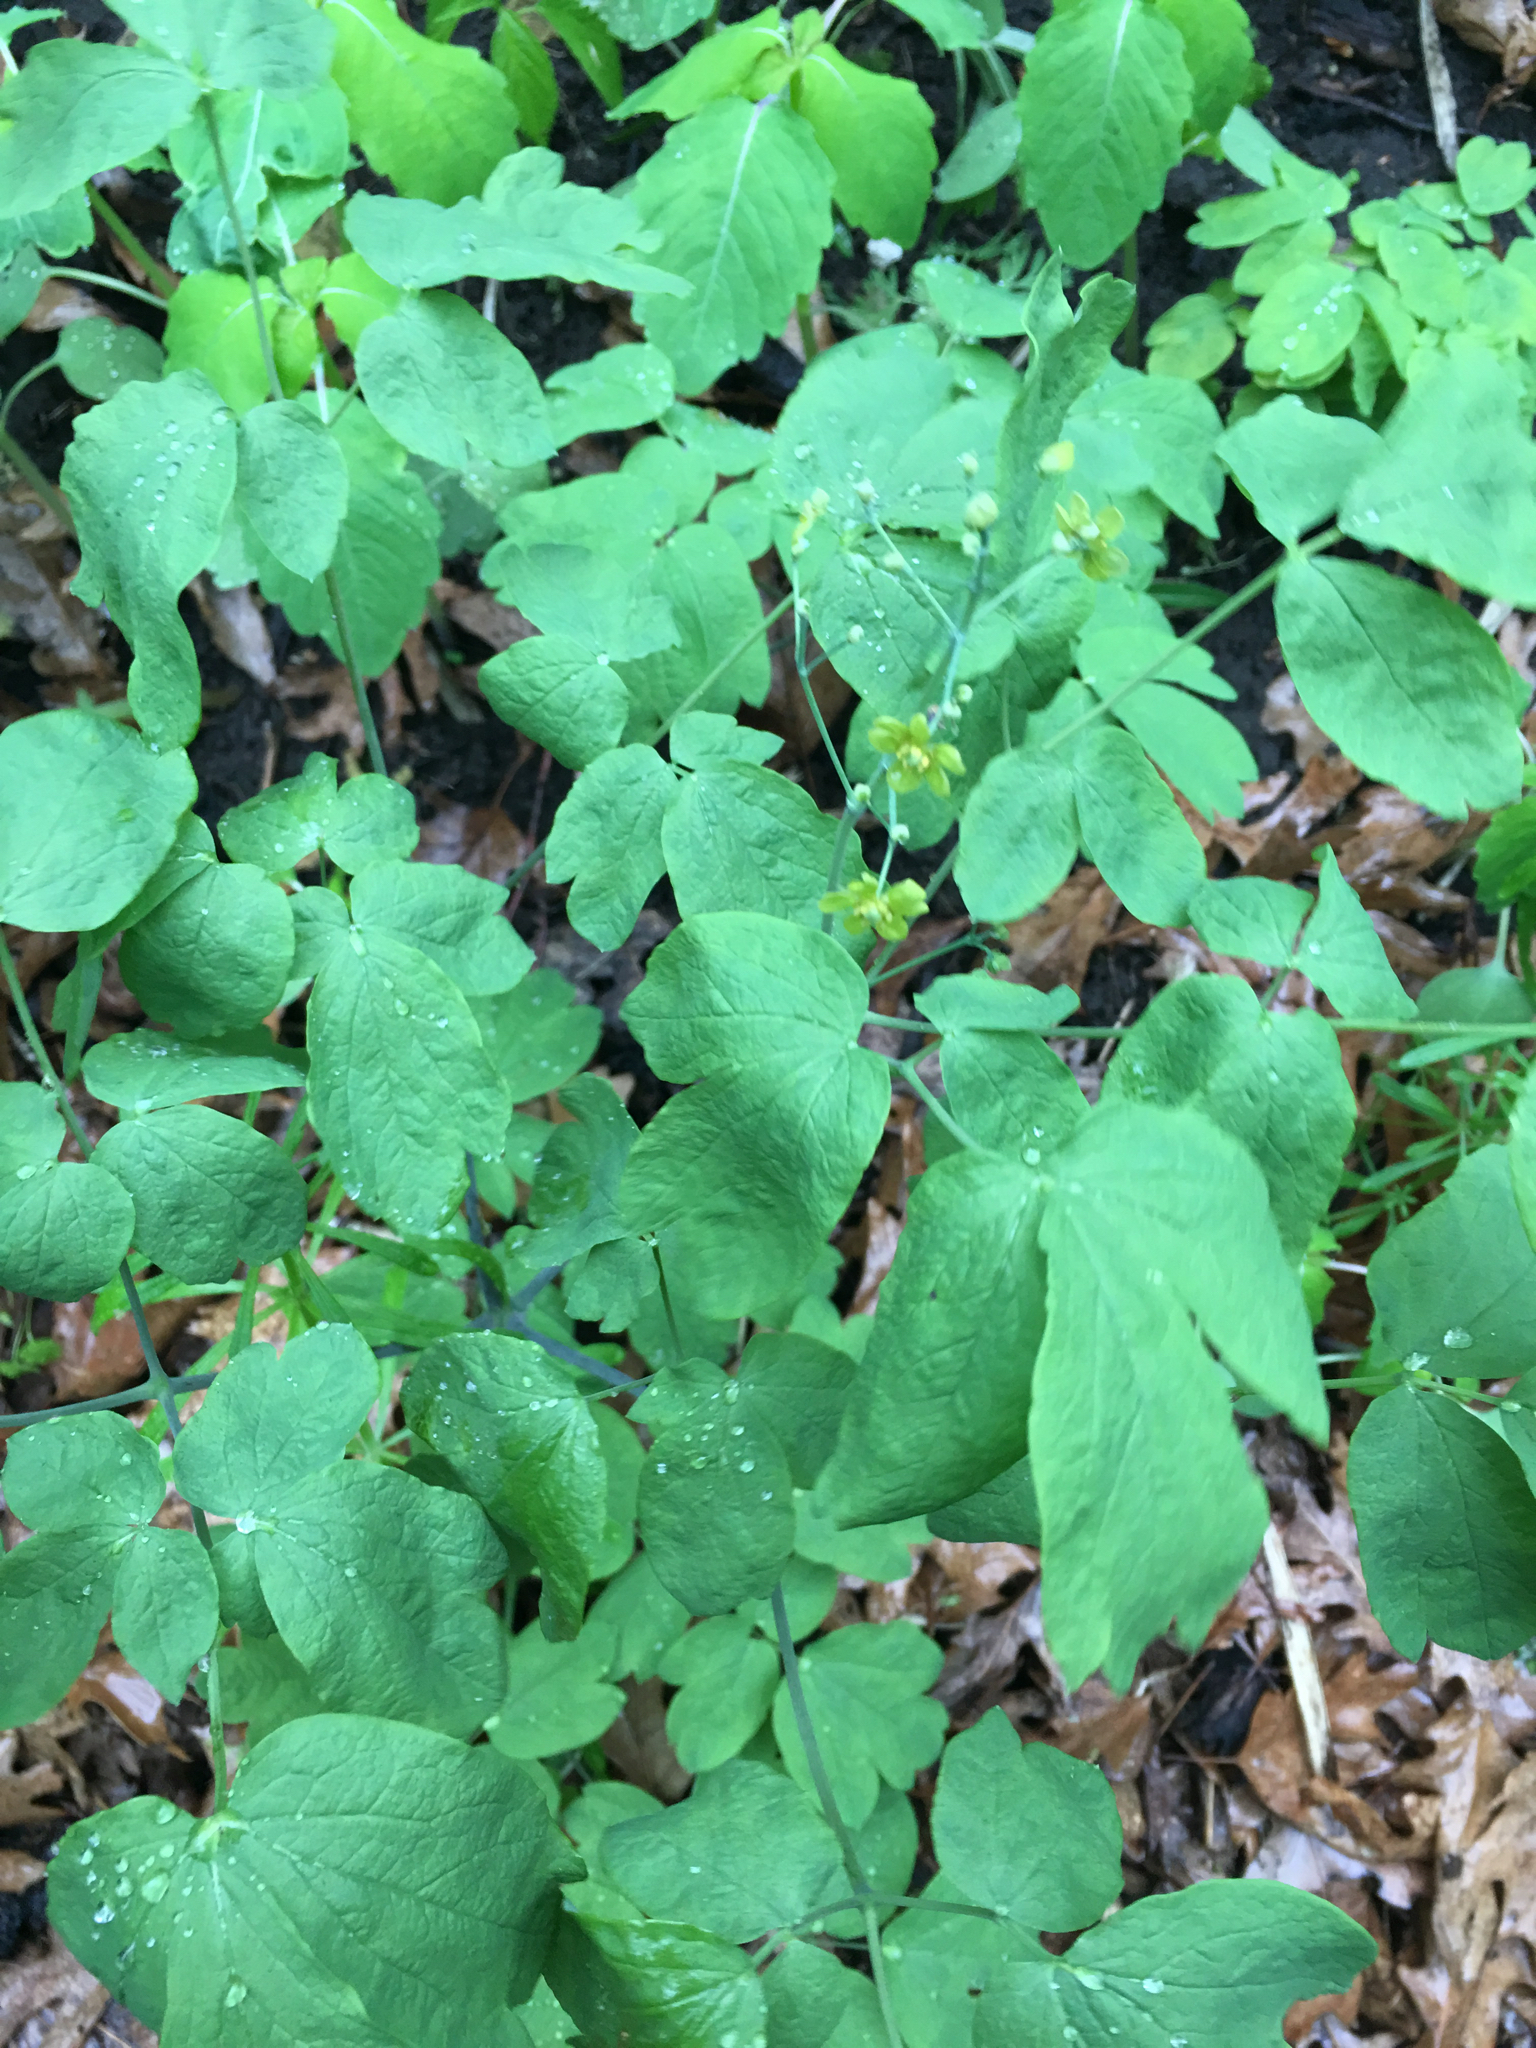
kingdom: Plantae
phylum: Tracheophyta
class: Magnoliopsida
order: Ranunculales
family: Berberidaceae
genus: Caulophyllum
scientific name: Caulophyllum thalictroides
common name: Blue cohosh
